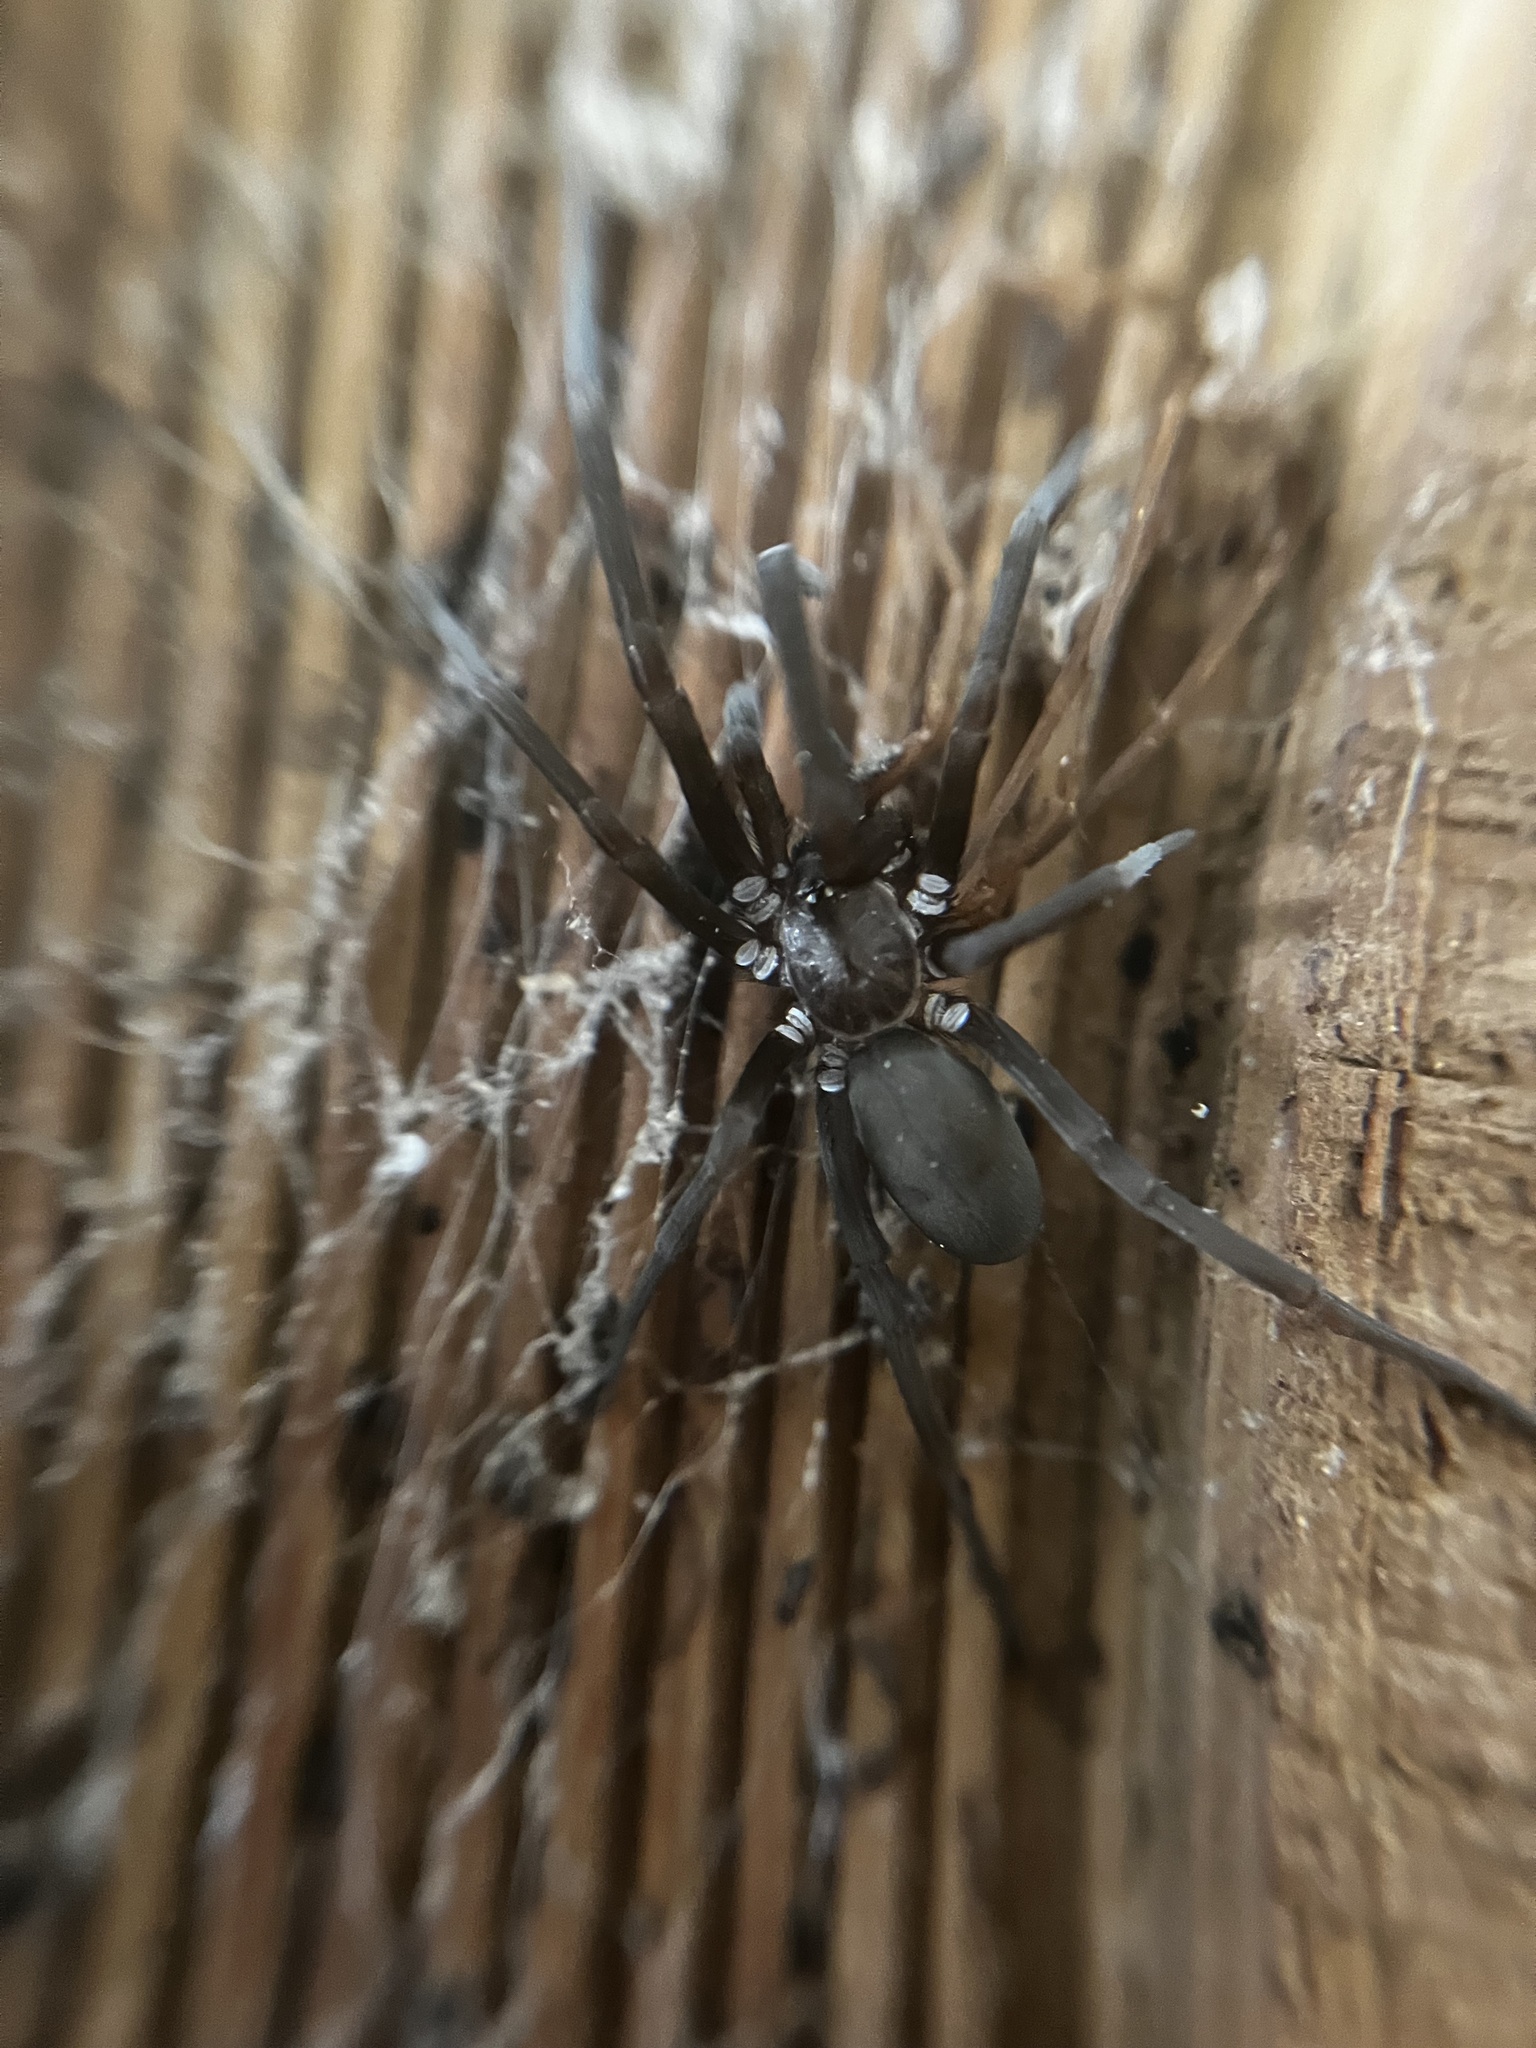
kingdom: Animalia
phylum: Arthropoda
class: Arachnida
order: Araneae
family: Filistatidae
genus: Kukulcania
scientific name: Kukulcania hibernalis
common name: Crevice weaver
